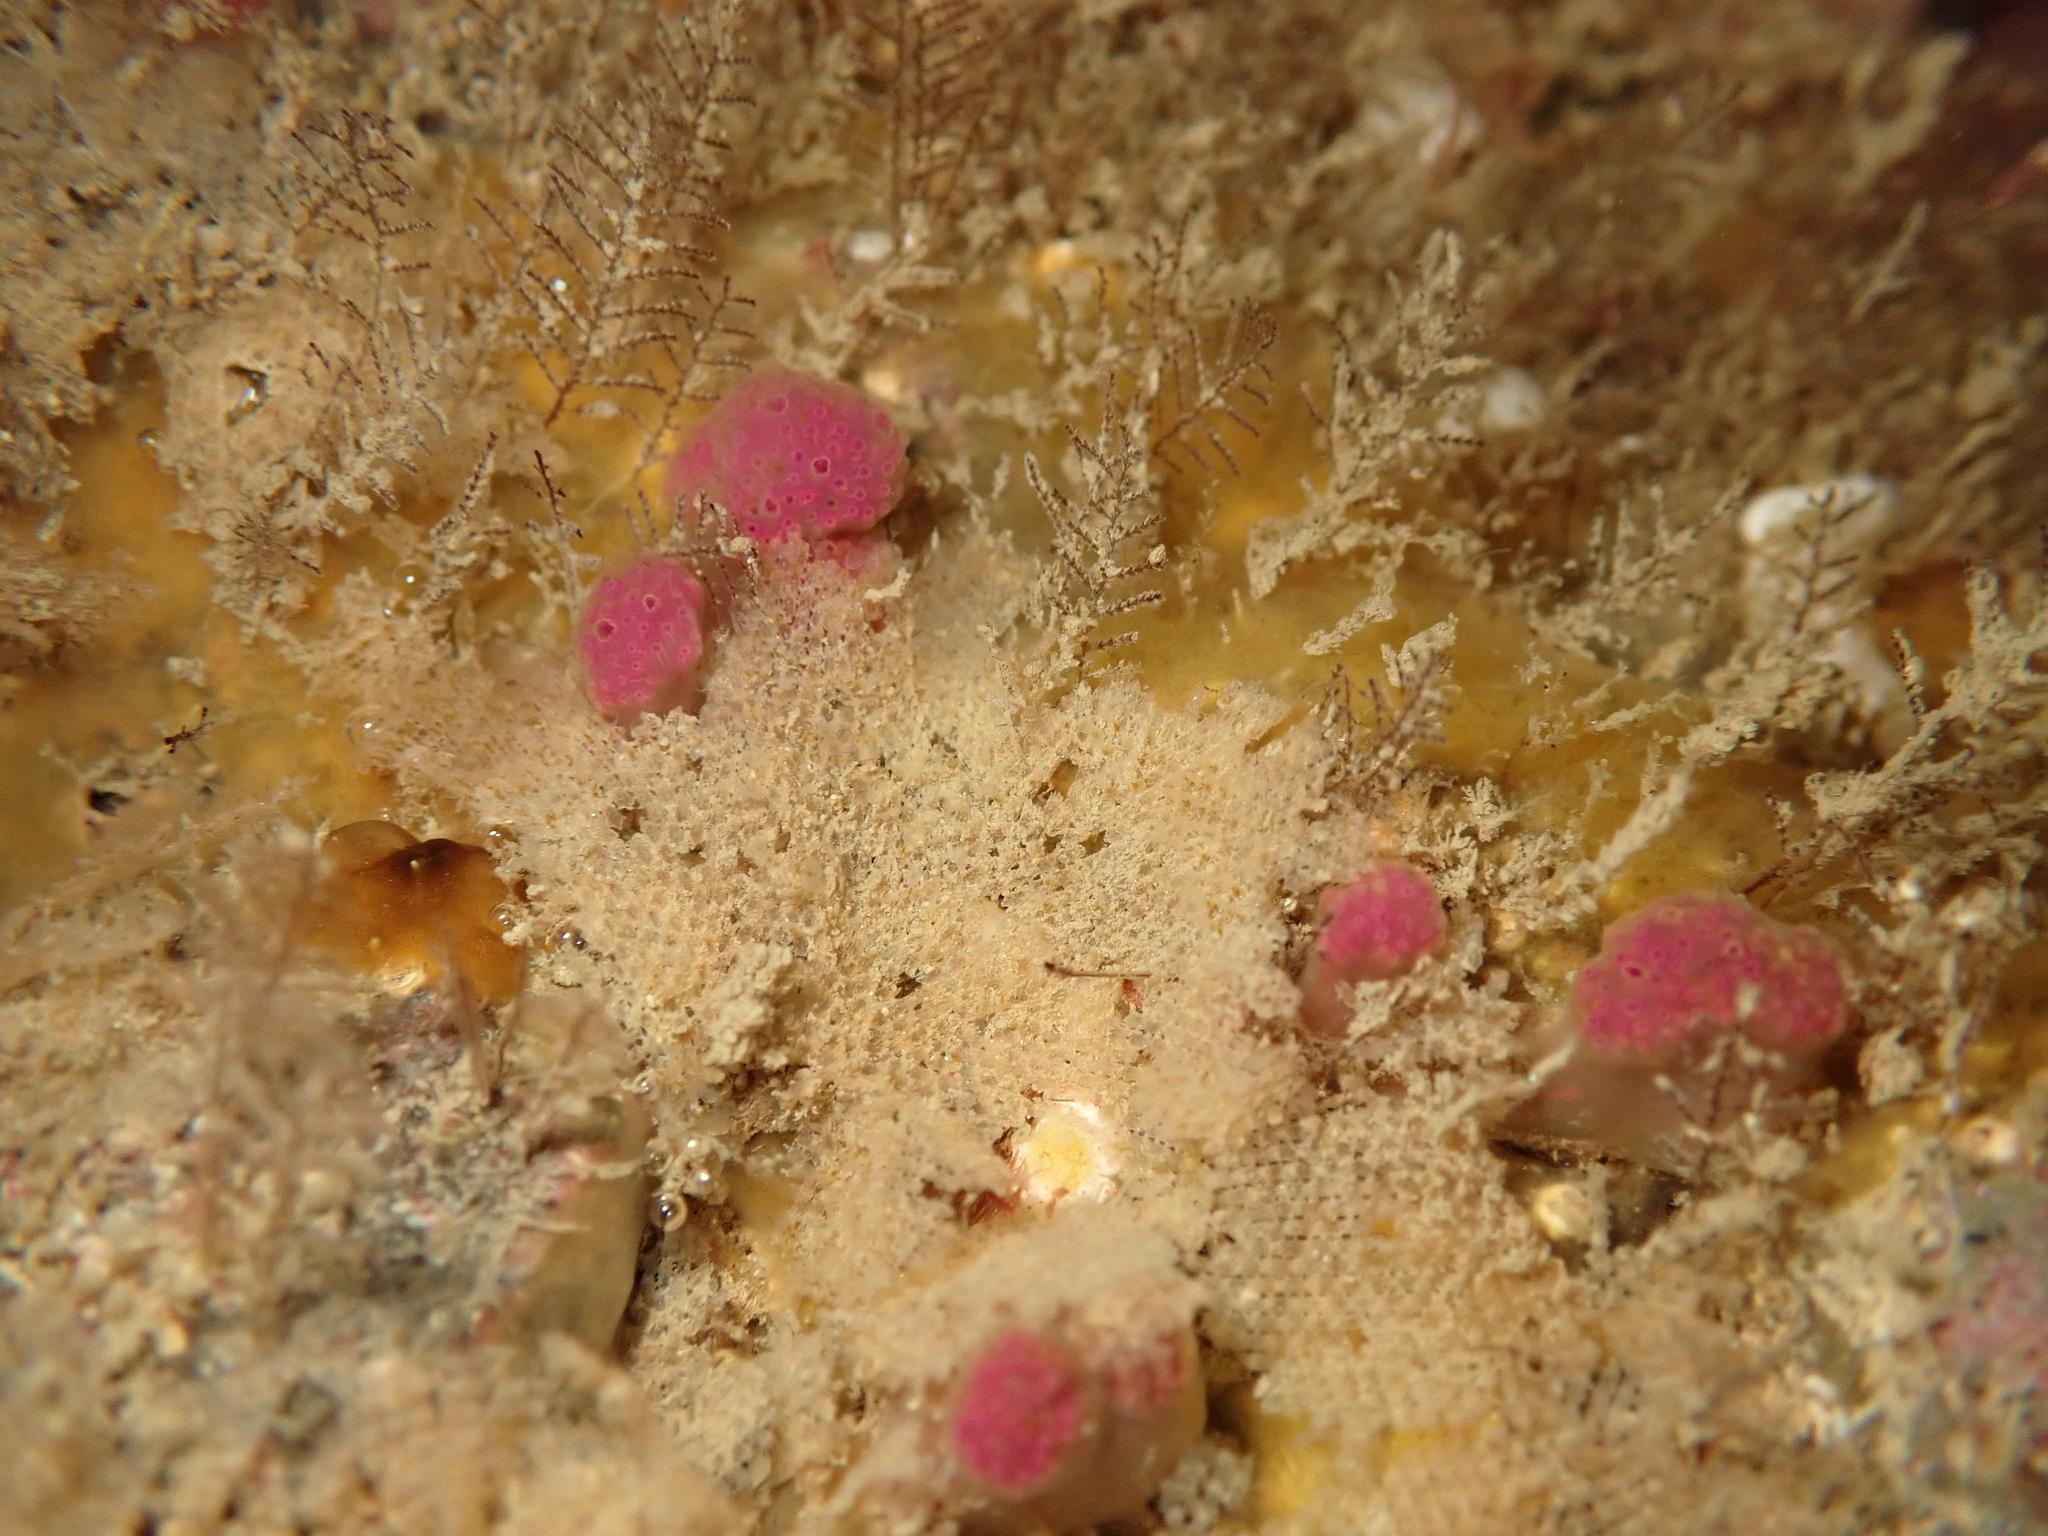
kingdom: Animalia
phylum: Chordata
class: Ascidiacea
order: Aplousobranchia
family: Holozoidae
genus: Hypsistozoa
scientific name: Hypsistozoa fasmeriana
